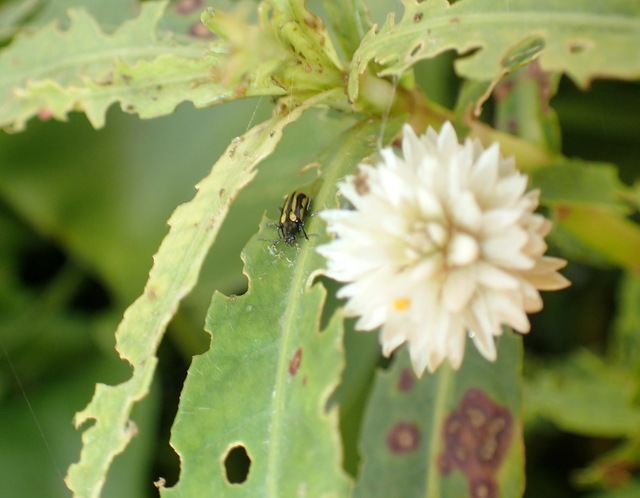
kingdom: Animalia
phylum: Arthropoda
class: Insecta
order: Coleoptera
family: Chrysomelidae
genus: Agasicles
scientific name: Agasicles hygrophila
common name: Alligatorweed flea beetle
